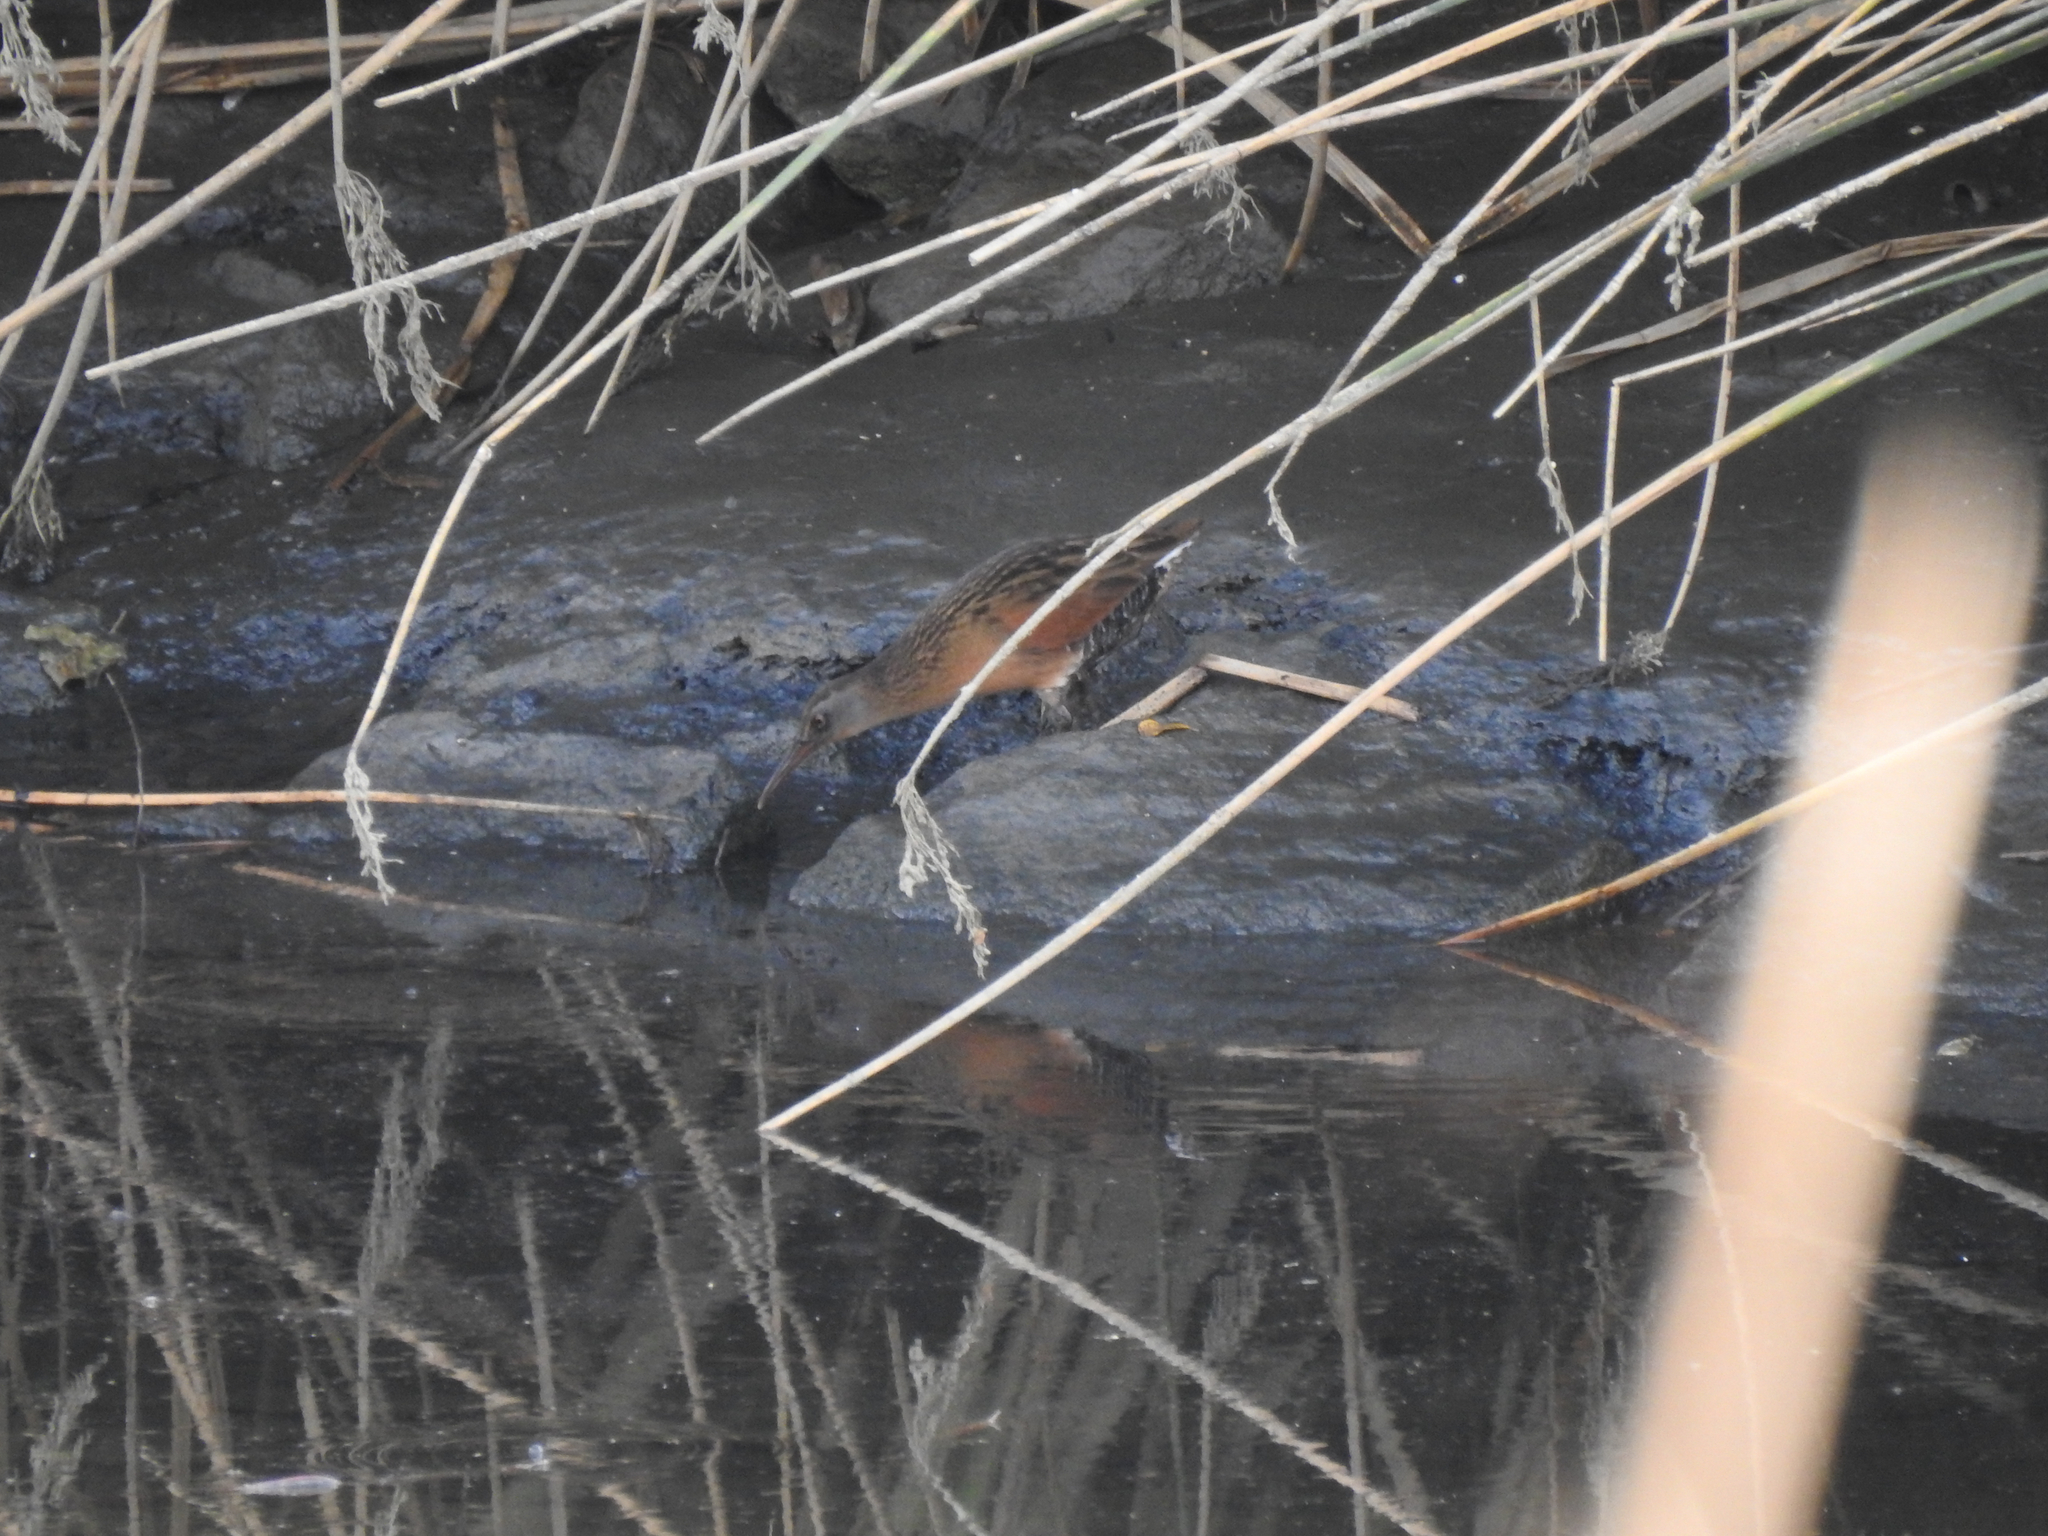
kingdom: Animalia
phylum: Chordata
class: Aves
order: Gruiformes
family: Rallidae
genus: Rallus
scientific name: Rallus limicola
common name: Virginia rail
